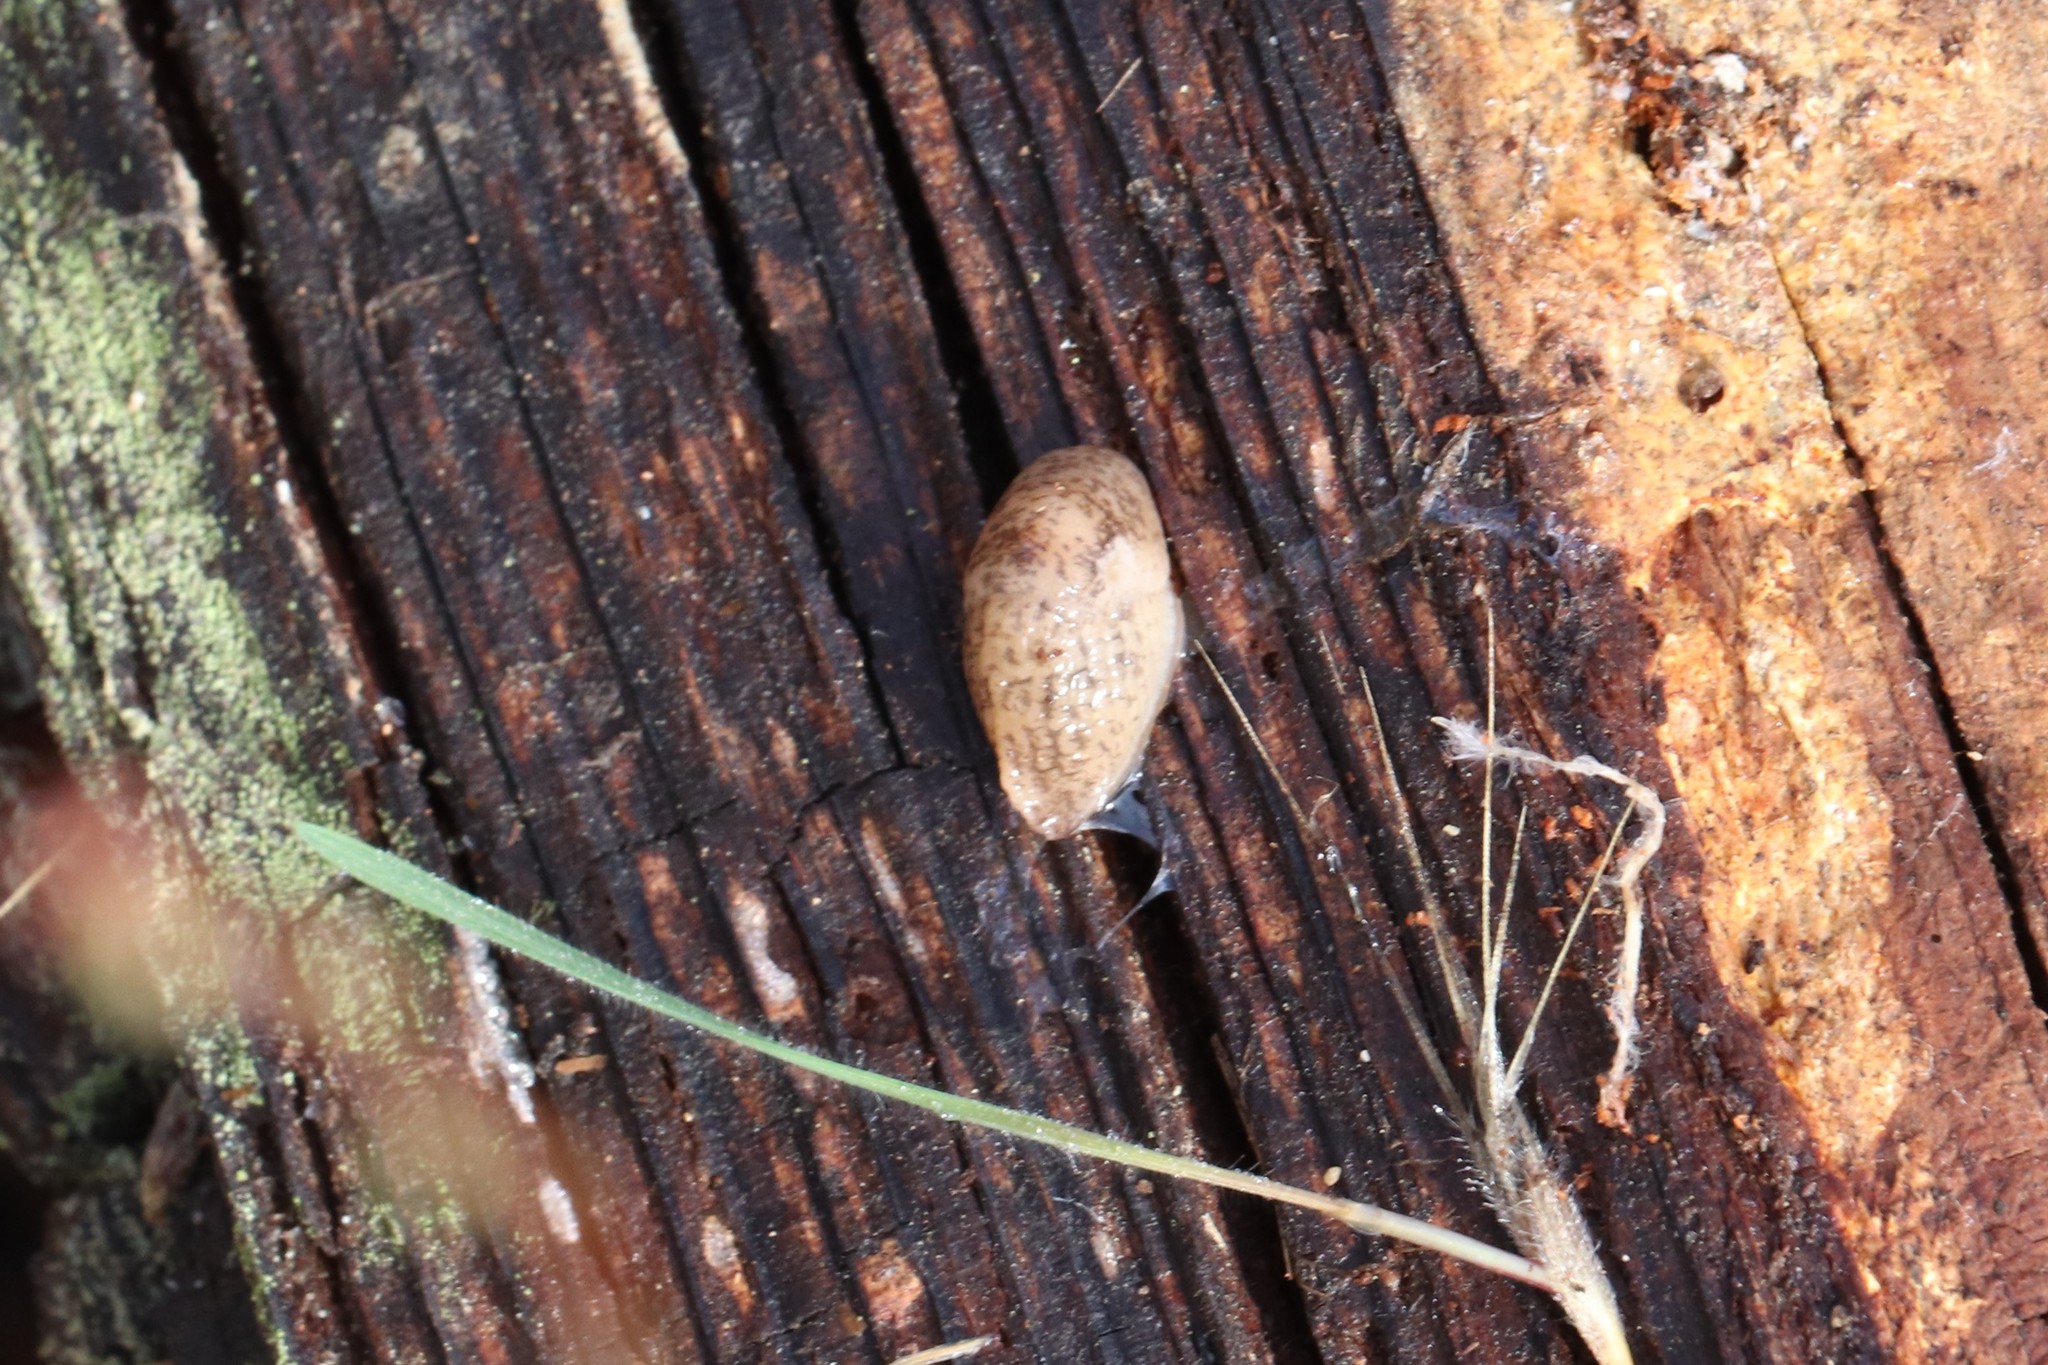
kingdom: Animalia
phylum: Mollusca
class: Gastropoda
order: Stylommatophora
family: Agriolimacidae
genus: Deroceras
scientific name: Deroceras reticulatum
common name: Gray field slug
